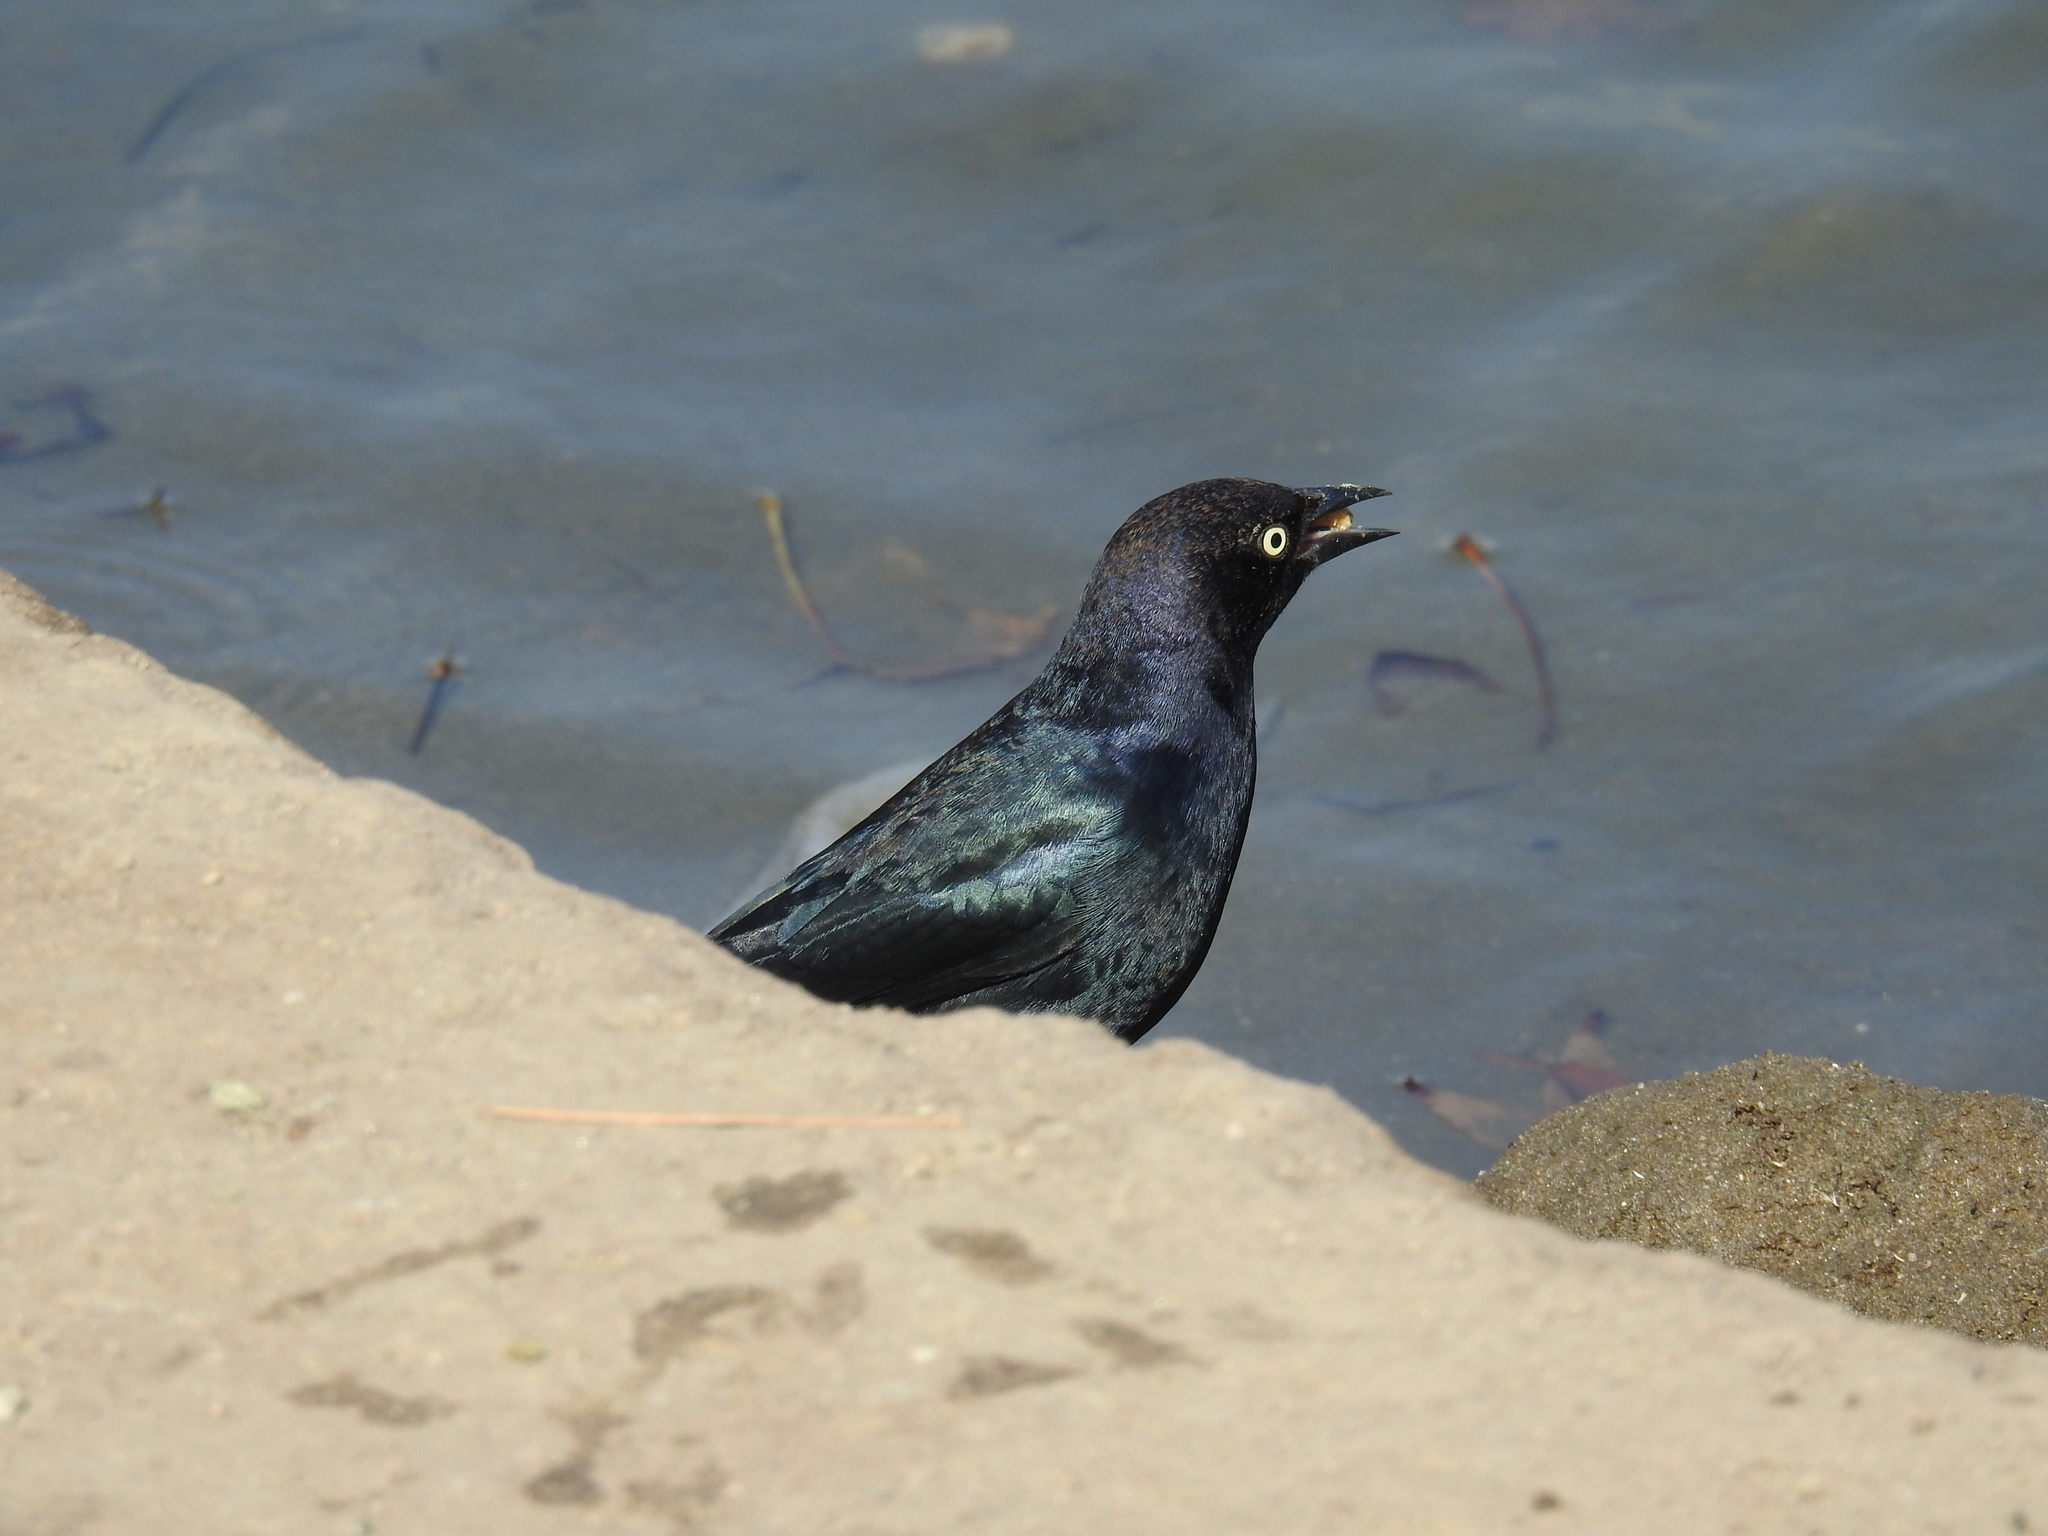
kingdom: Animalia
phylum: Chordata
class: Aves
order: Passeriformes
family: Icteridae
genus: Euphagus
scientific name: Euphagus cyanocephalus
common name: Brewer's blackbird
